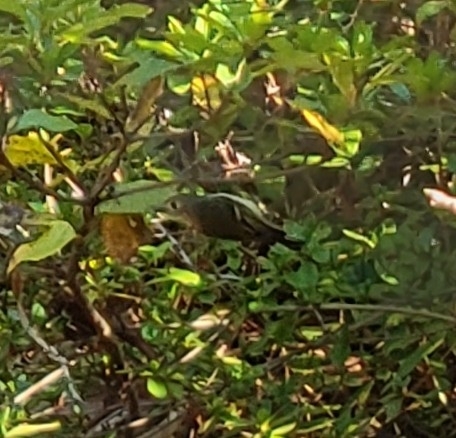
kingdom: Animalia
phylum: Chordata
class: Aves
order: Passeriformes
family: Regulidae
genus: Regulus
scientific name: Regulus calendula
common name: Ruby-crowned kinglet
